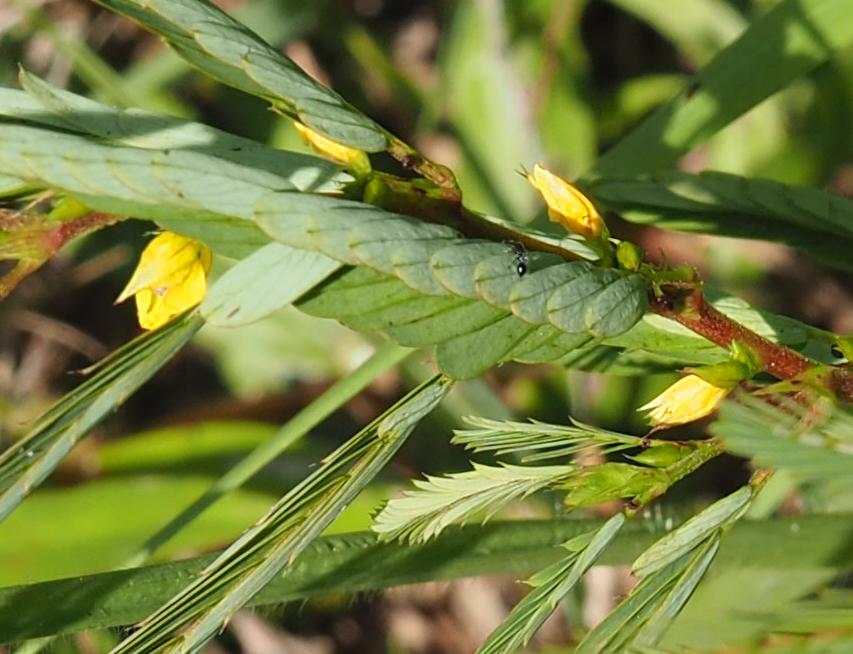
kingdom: Plantae
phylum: Tracheophyta
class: Magnoliopsida
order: Fabales
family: Fabaceae
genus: Chamaecrista
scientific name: Chamaecrista nictitans
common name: Sensitive cassia
